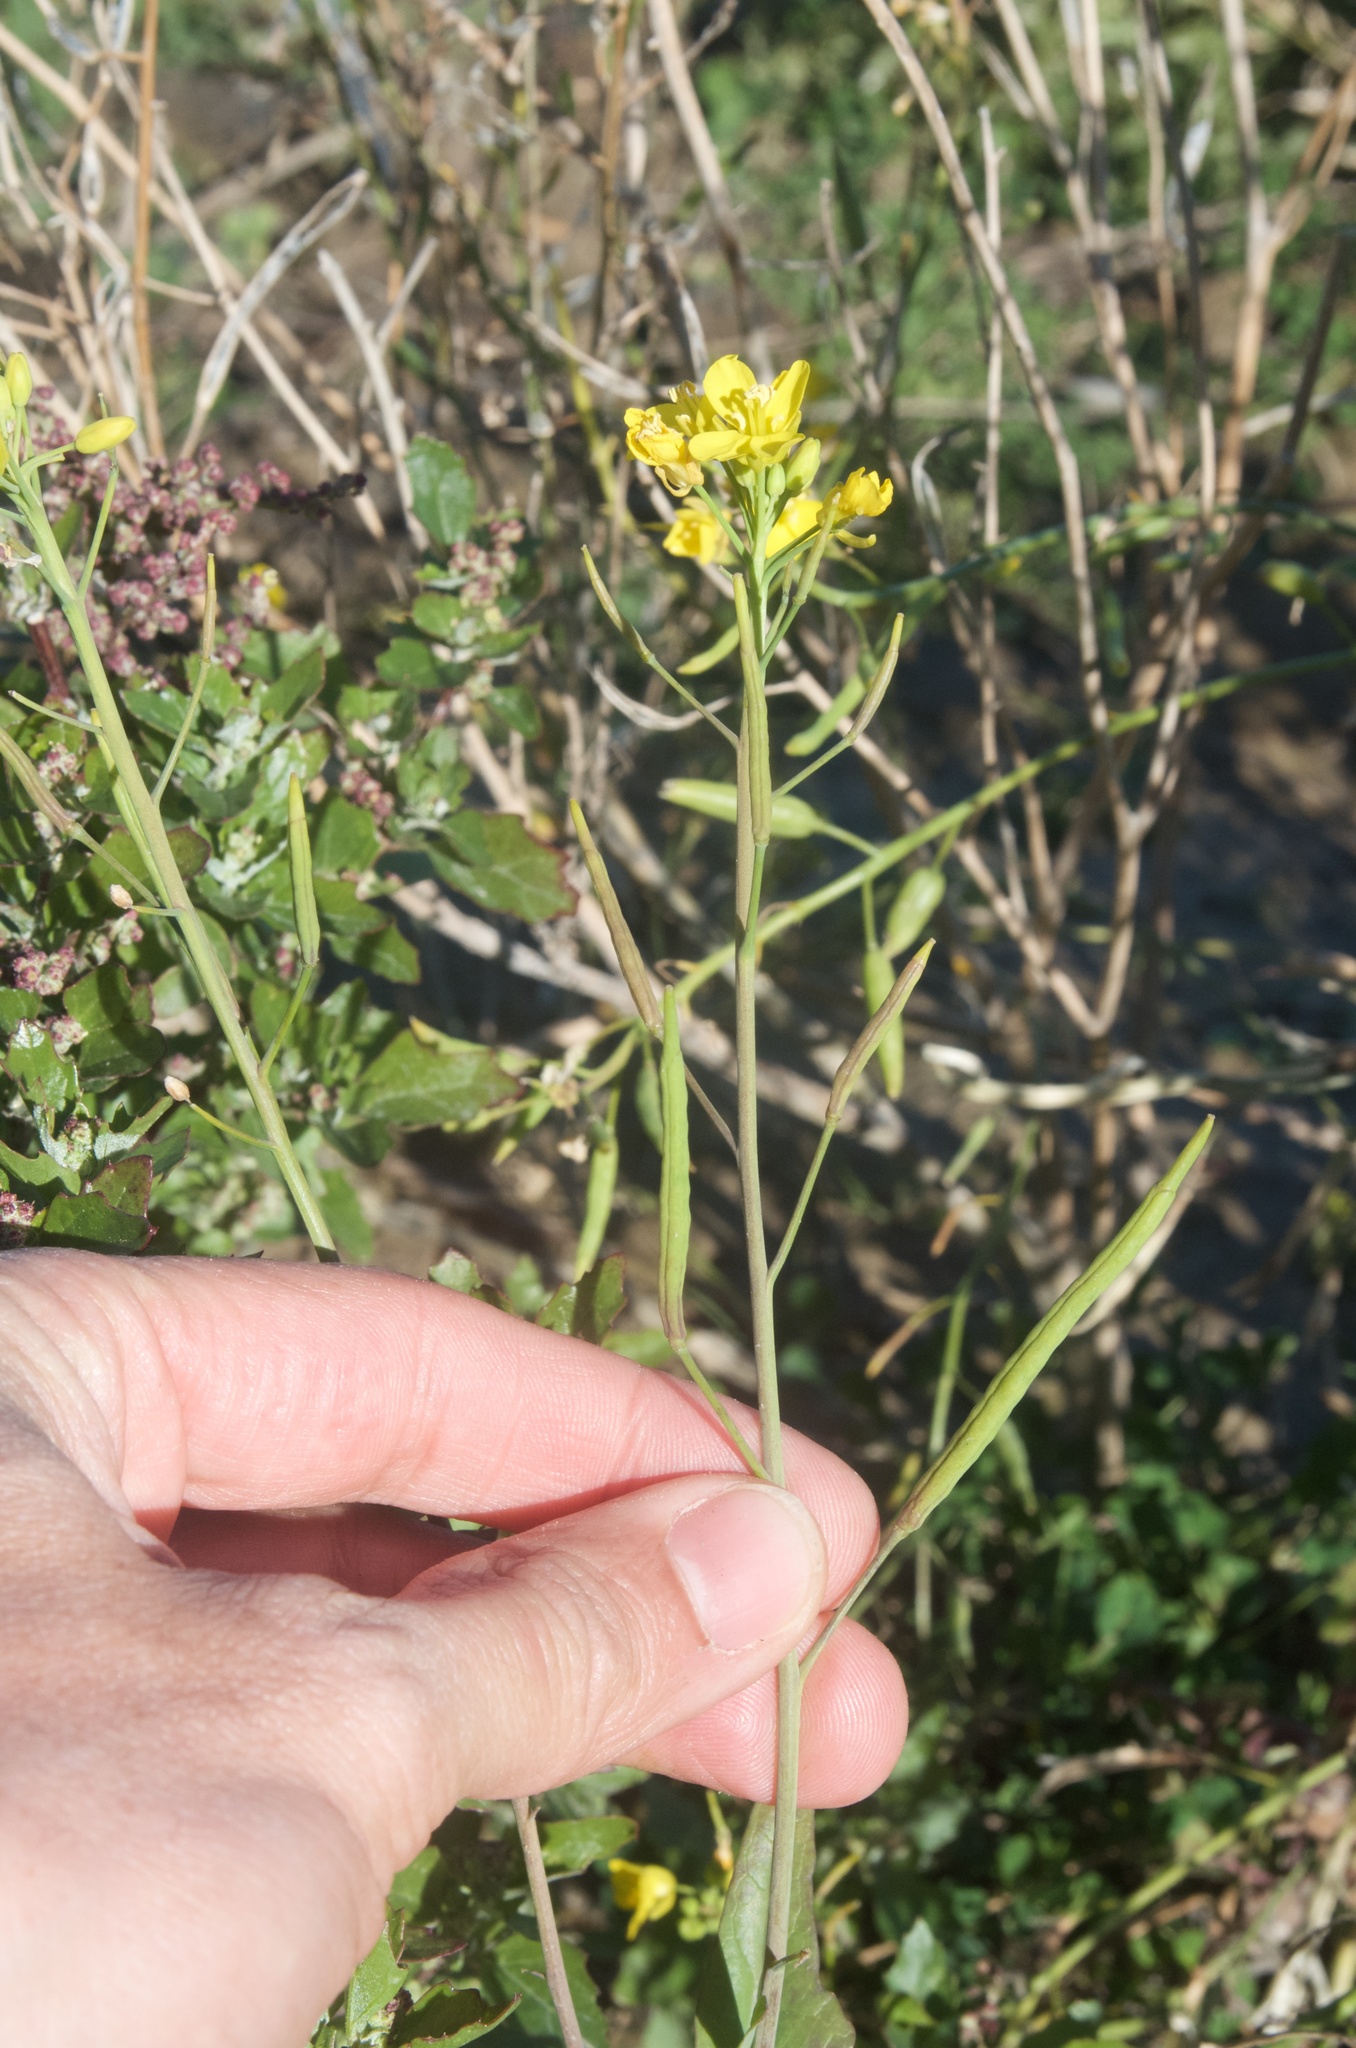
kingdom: Plantae
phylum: Tracheophyta
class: Magnoliopsida
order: Brassicales
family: Brassicaceae
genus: Brassica
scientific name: Brassica rapa
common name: Field mustard
